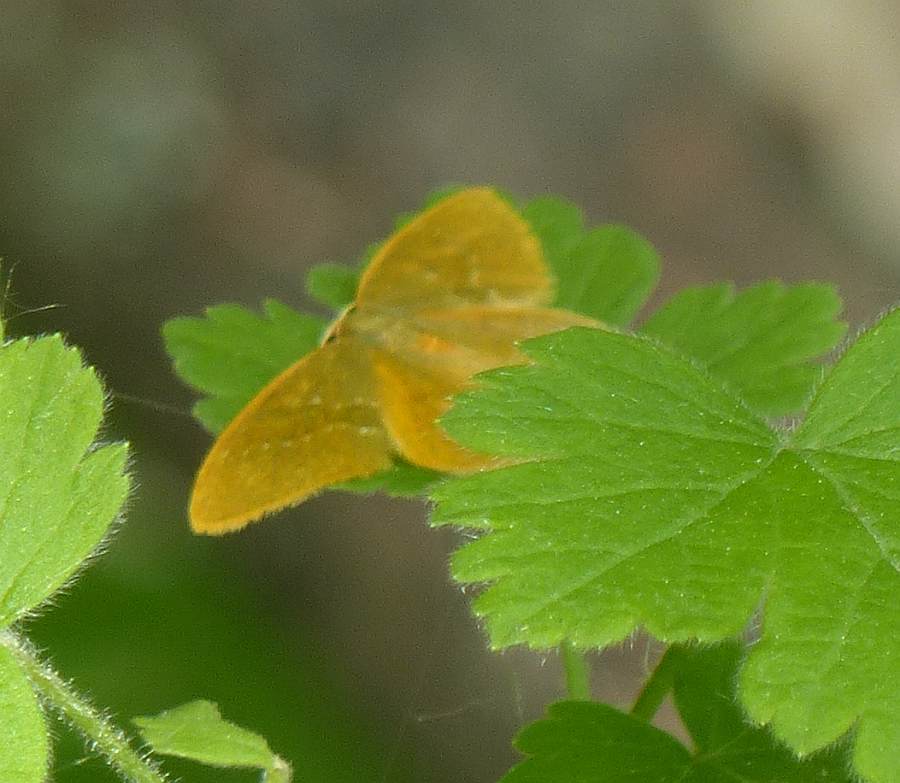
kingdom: Animalia
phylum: Arthropoda
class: Insecta
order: Lepidoptera
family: Geometridae
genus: Thalera
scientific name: Thalera pistasciaria
